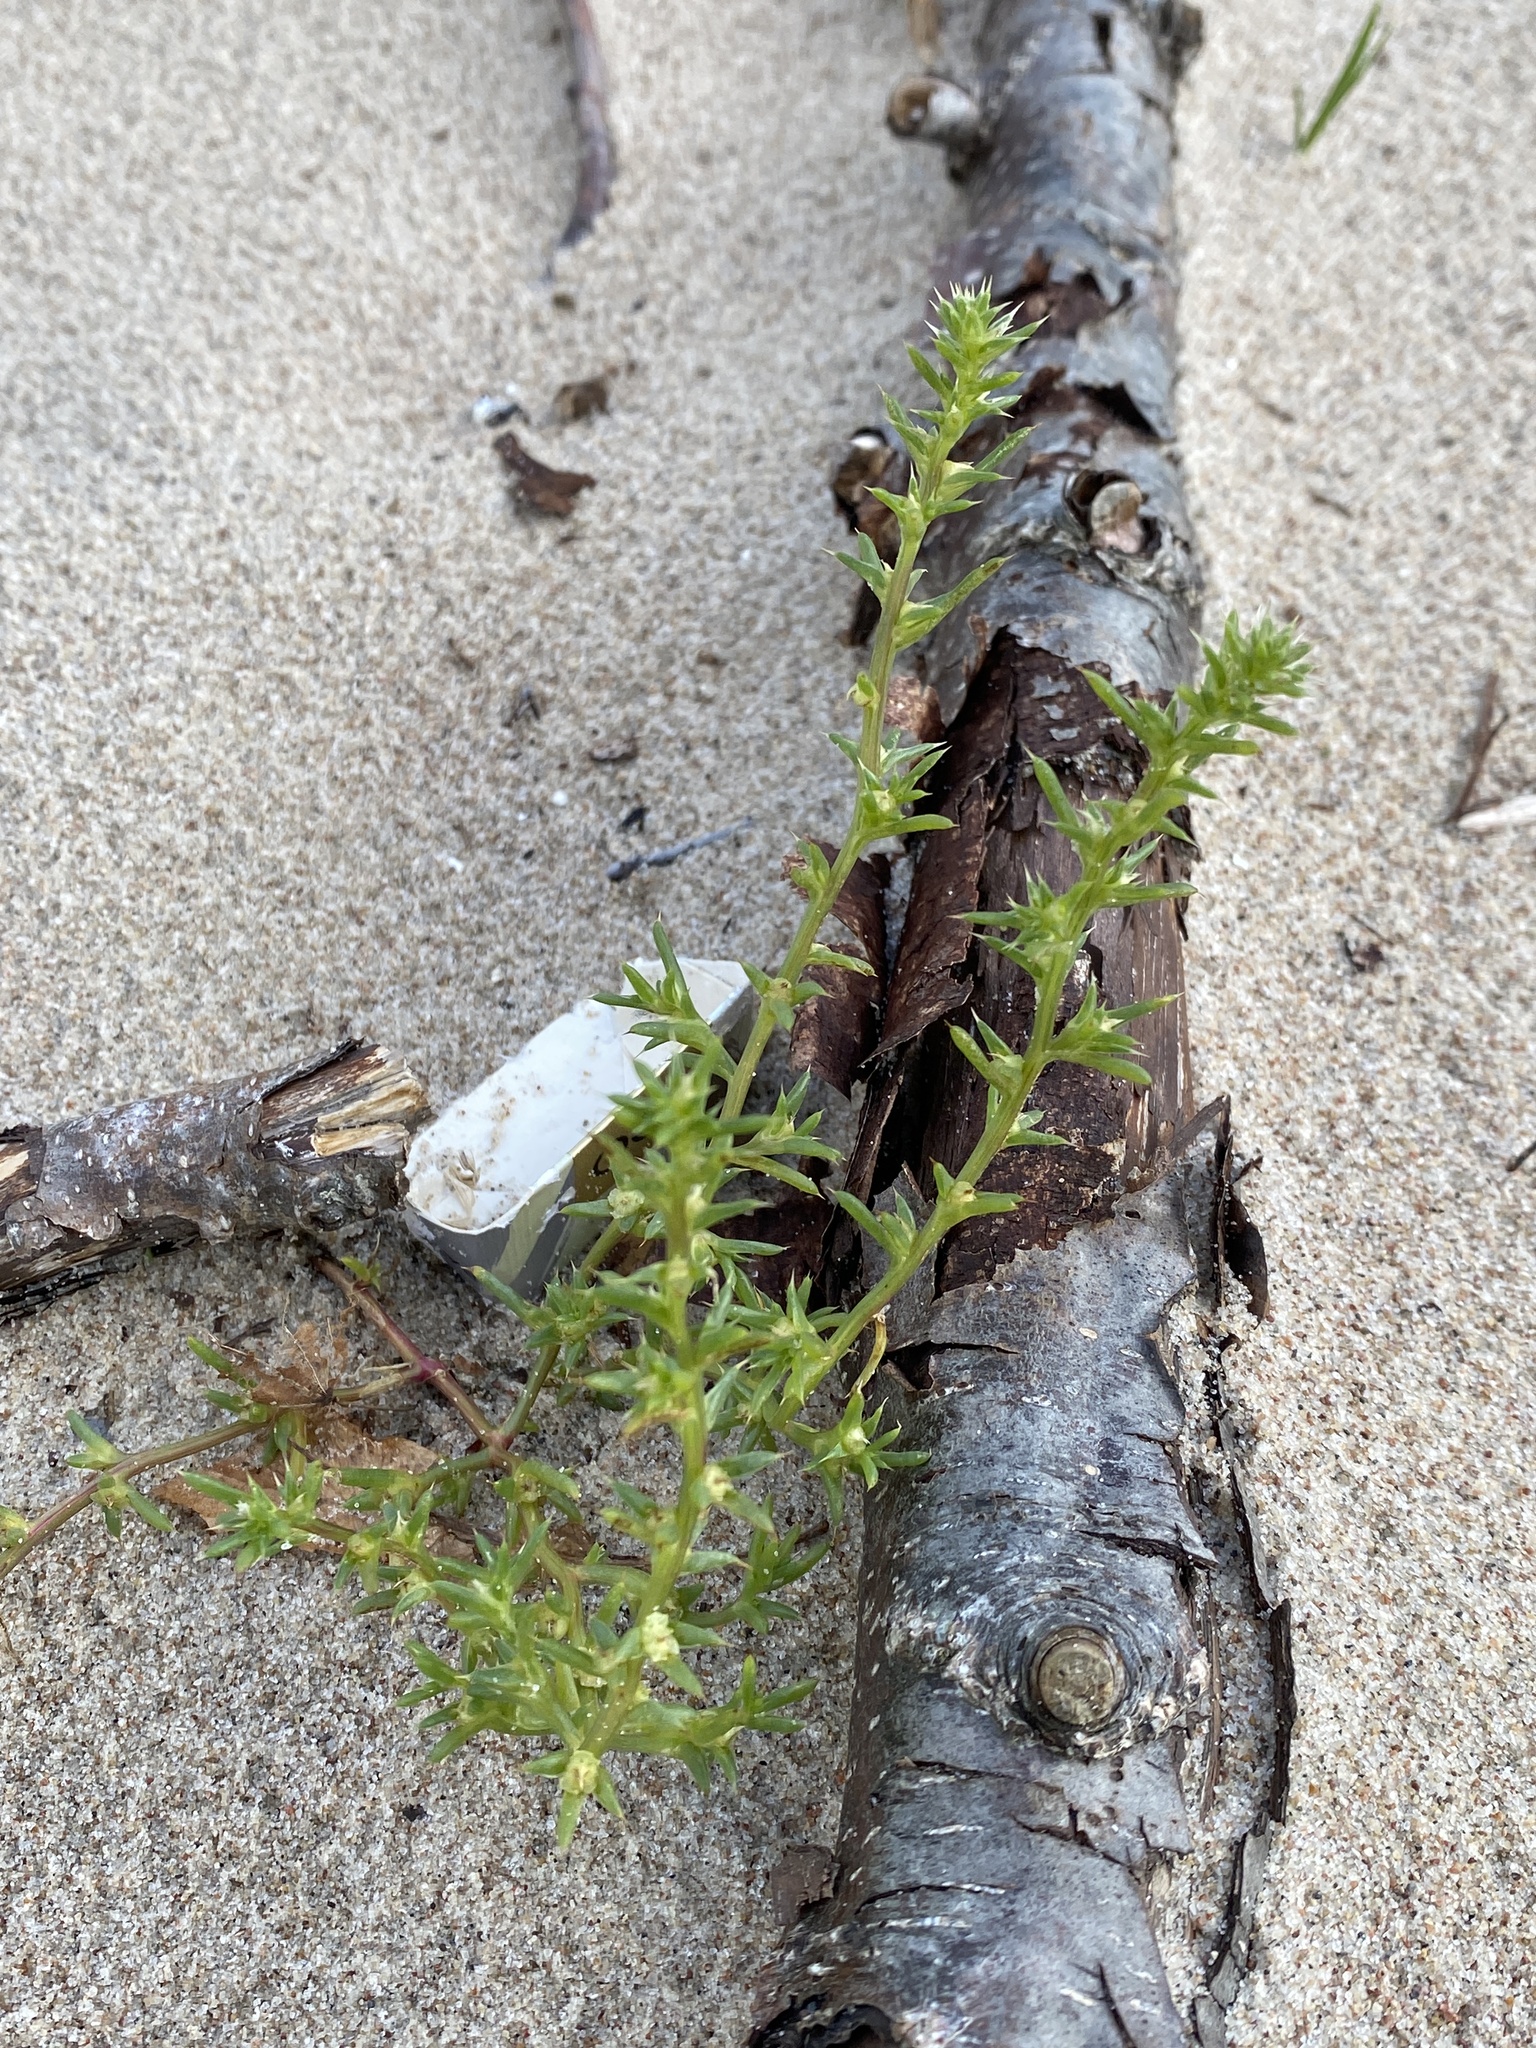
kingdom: Plantae
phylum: Tracheophyta
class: Magnoliopsida
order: Caryophyllales
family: Amaranthaceae
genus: Salsola
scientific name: Salsola kali
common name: Saltwort
